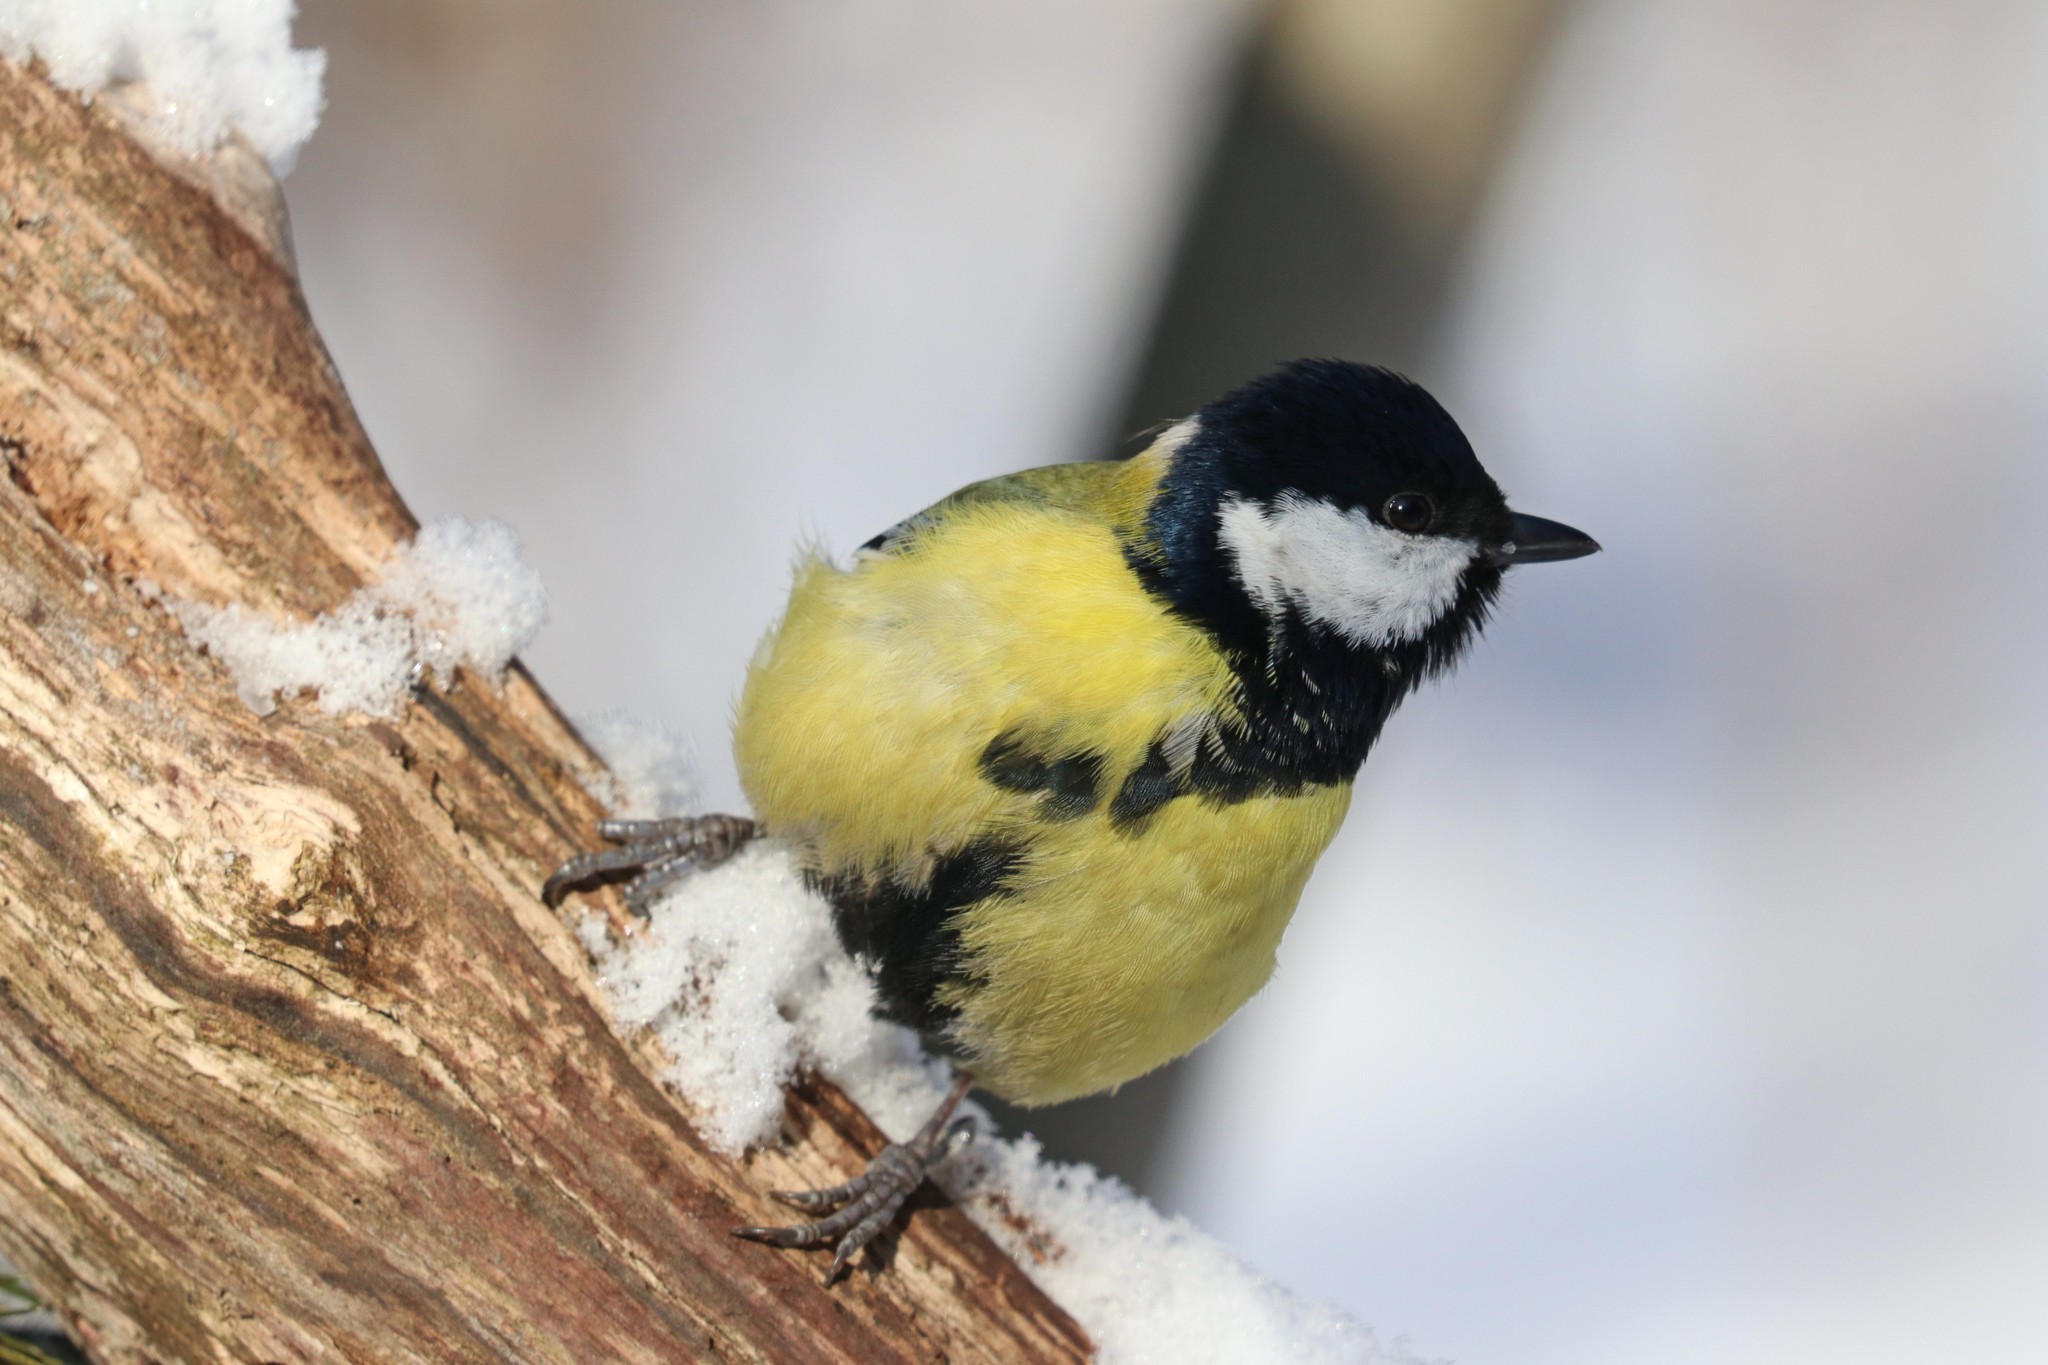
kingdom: Animalia
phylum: Chordata
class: Aves
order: Passeriformes
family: Paridae
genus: Parus
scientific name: Parus major
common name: Great tit
